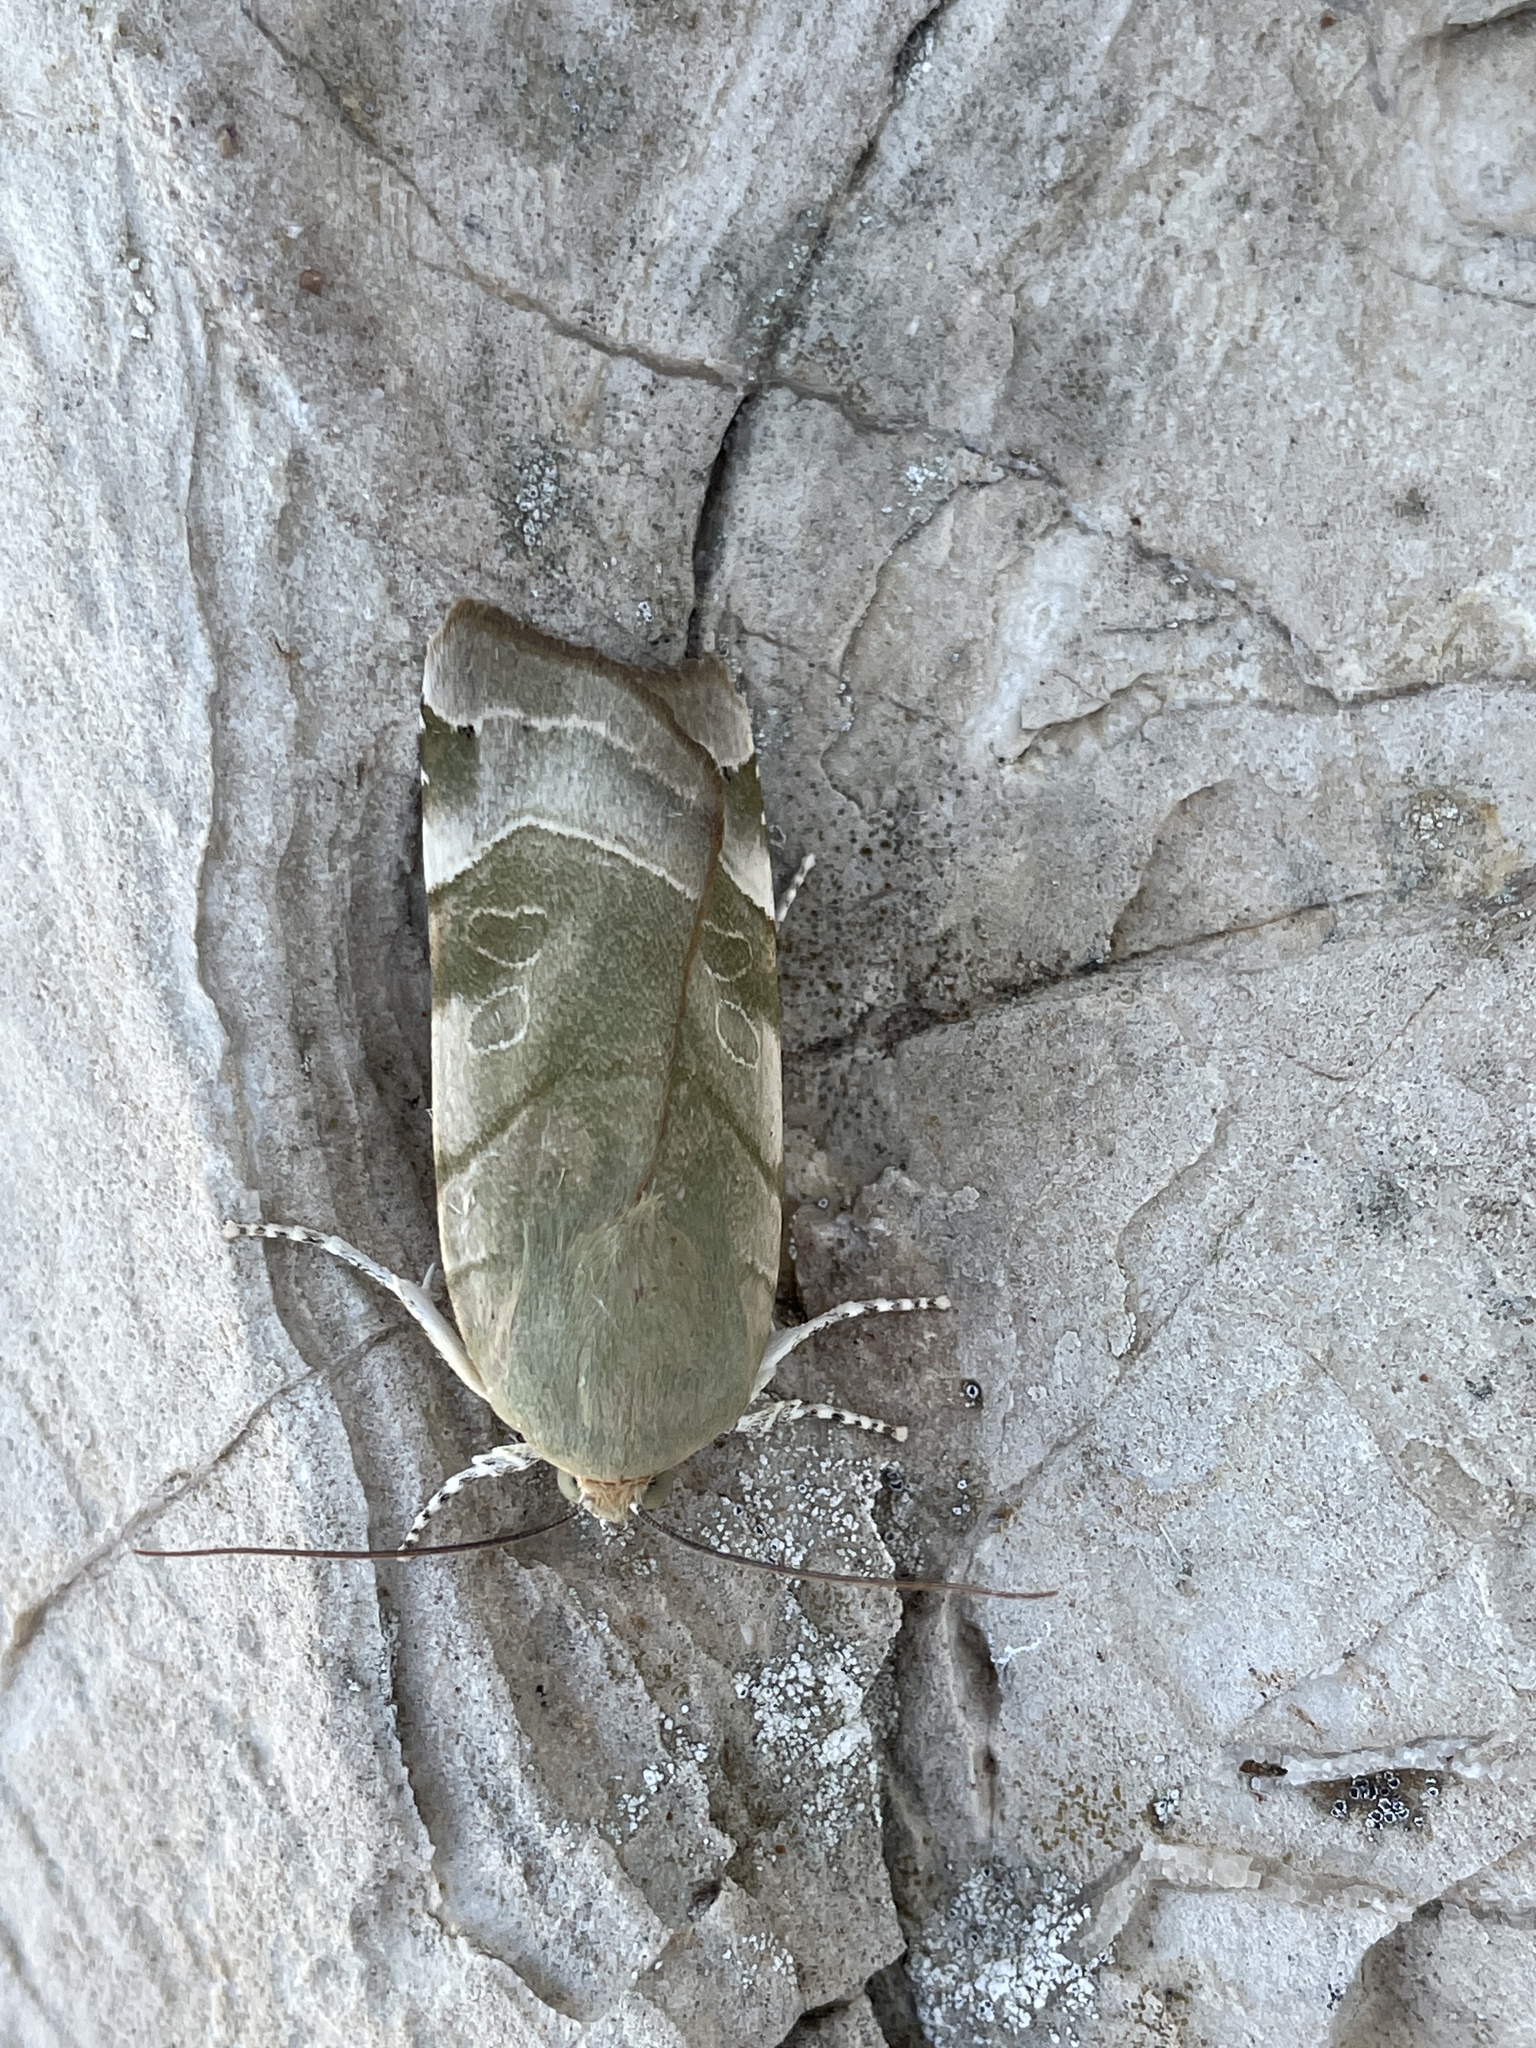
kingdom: Animalia
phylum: Arthropoda
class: Insecta
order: Lepidoptera
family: Noctuidae
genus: Noctua
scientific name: Noctua fimbriata
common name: Broad-bordered yellow underwing
